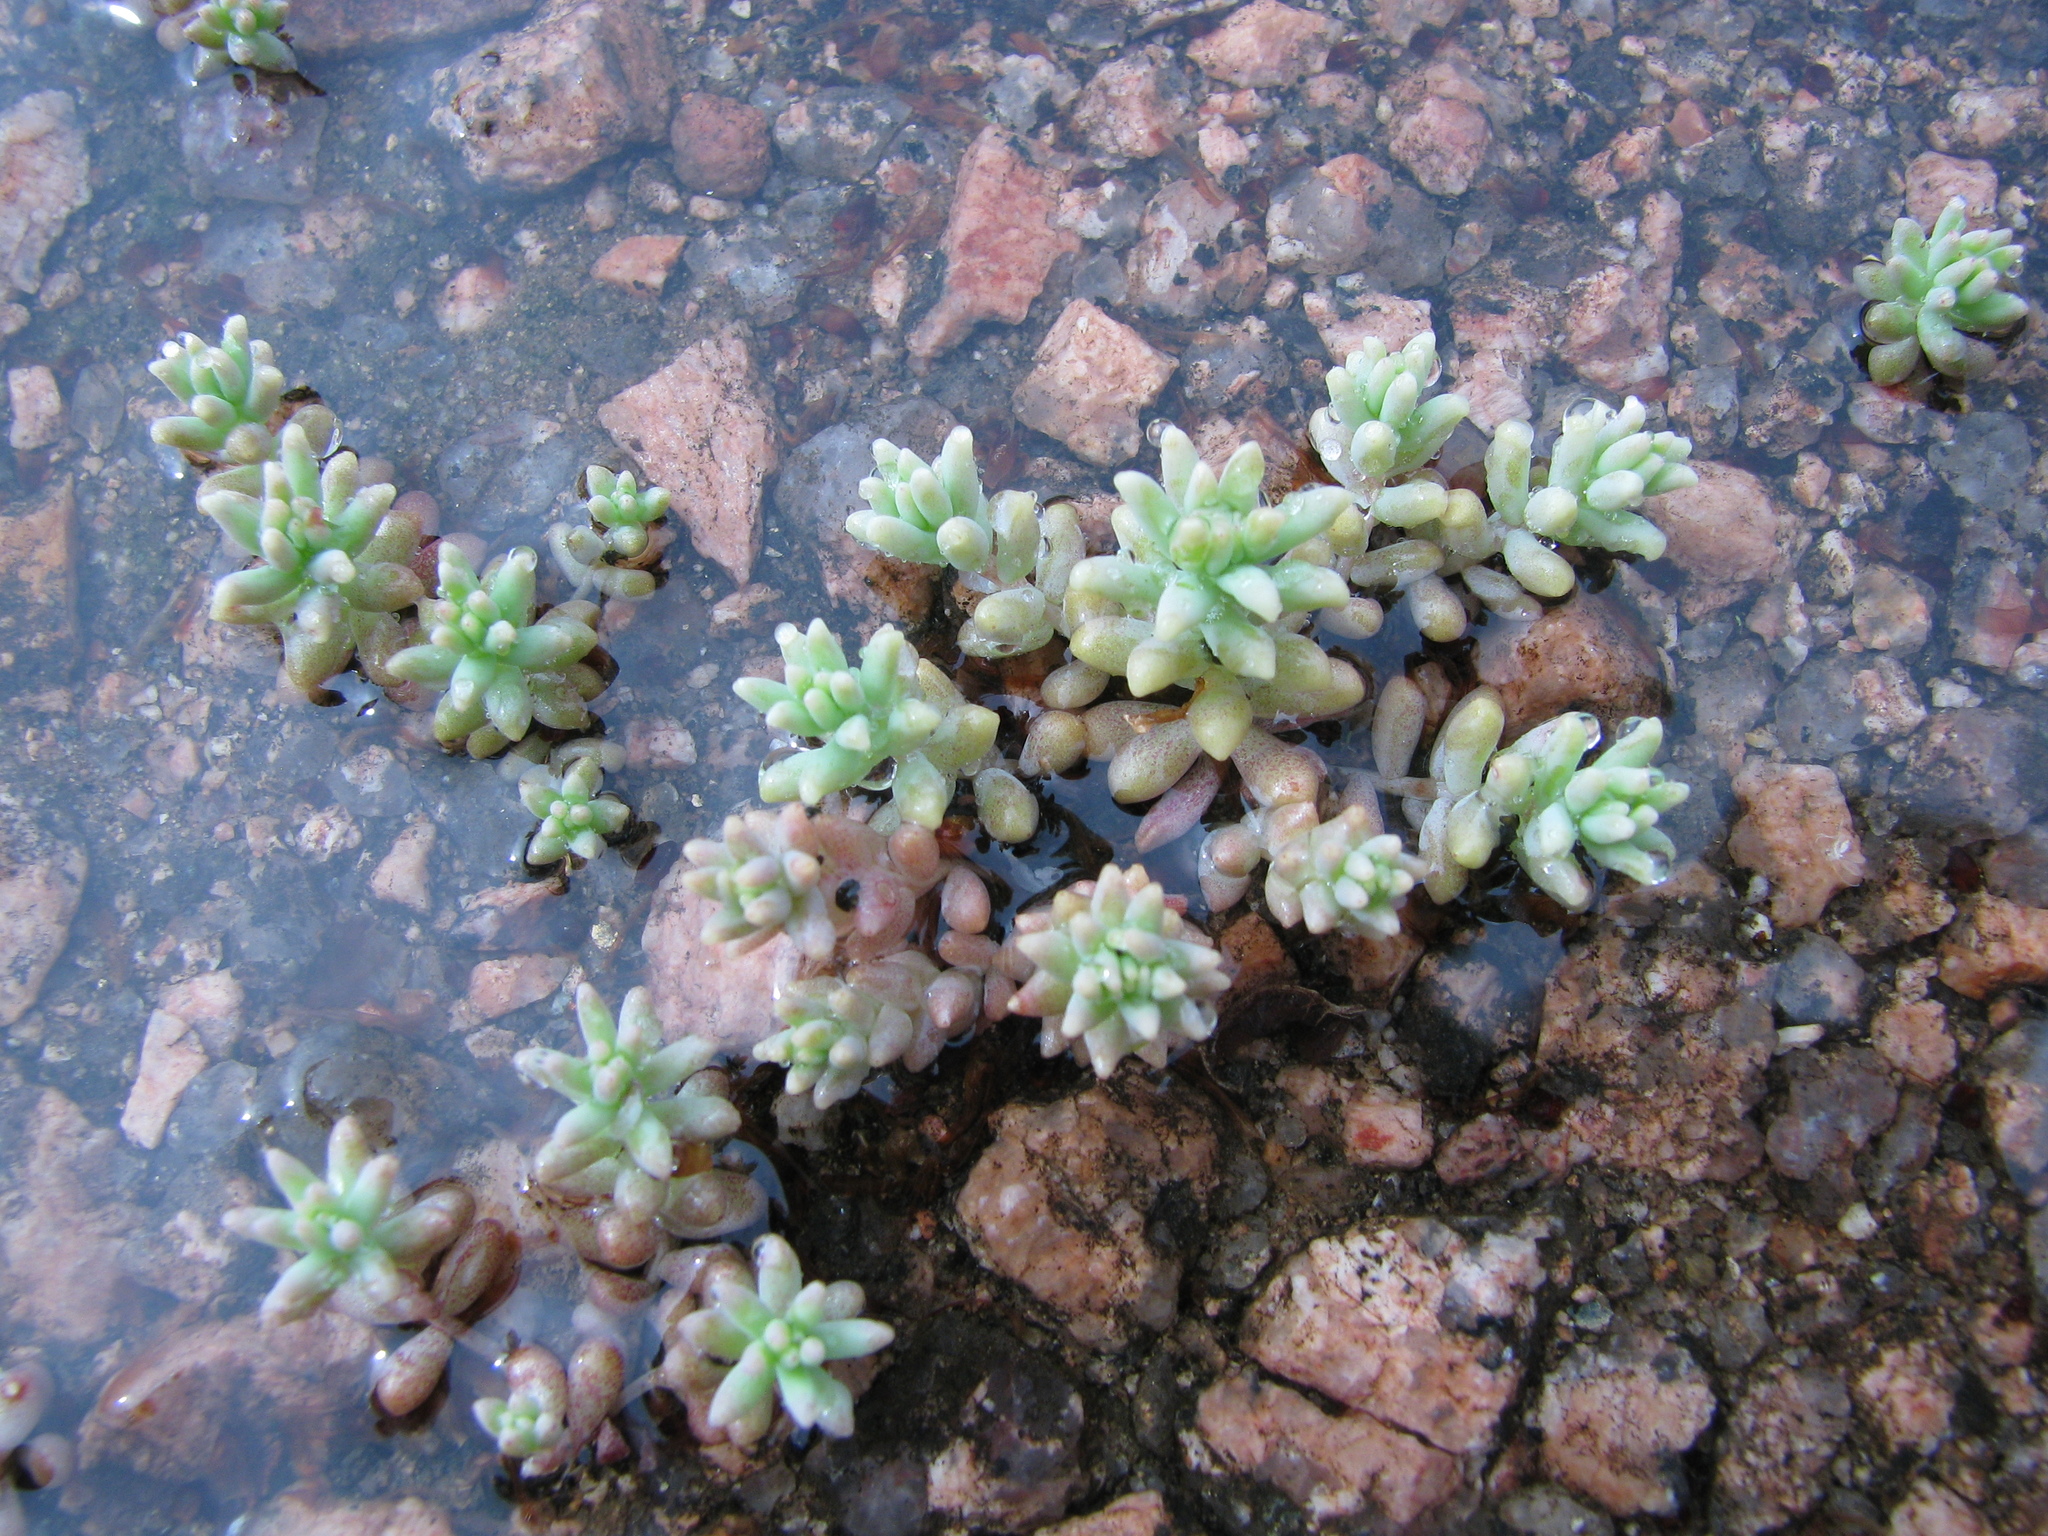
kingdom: Plantae
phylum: Tracheophyta
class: Magnoliopsida
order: Saxifragales
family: Crassulaceae
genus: Sedum
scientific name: Sedum nuttallii
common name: Yellow stonecrop
